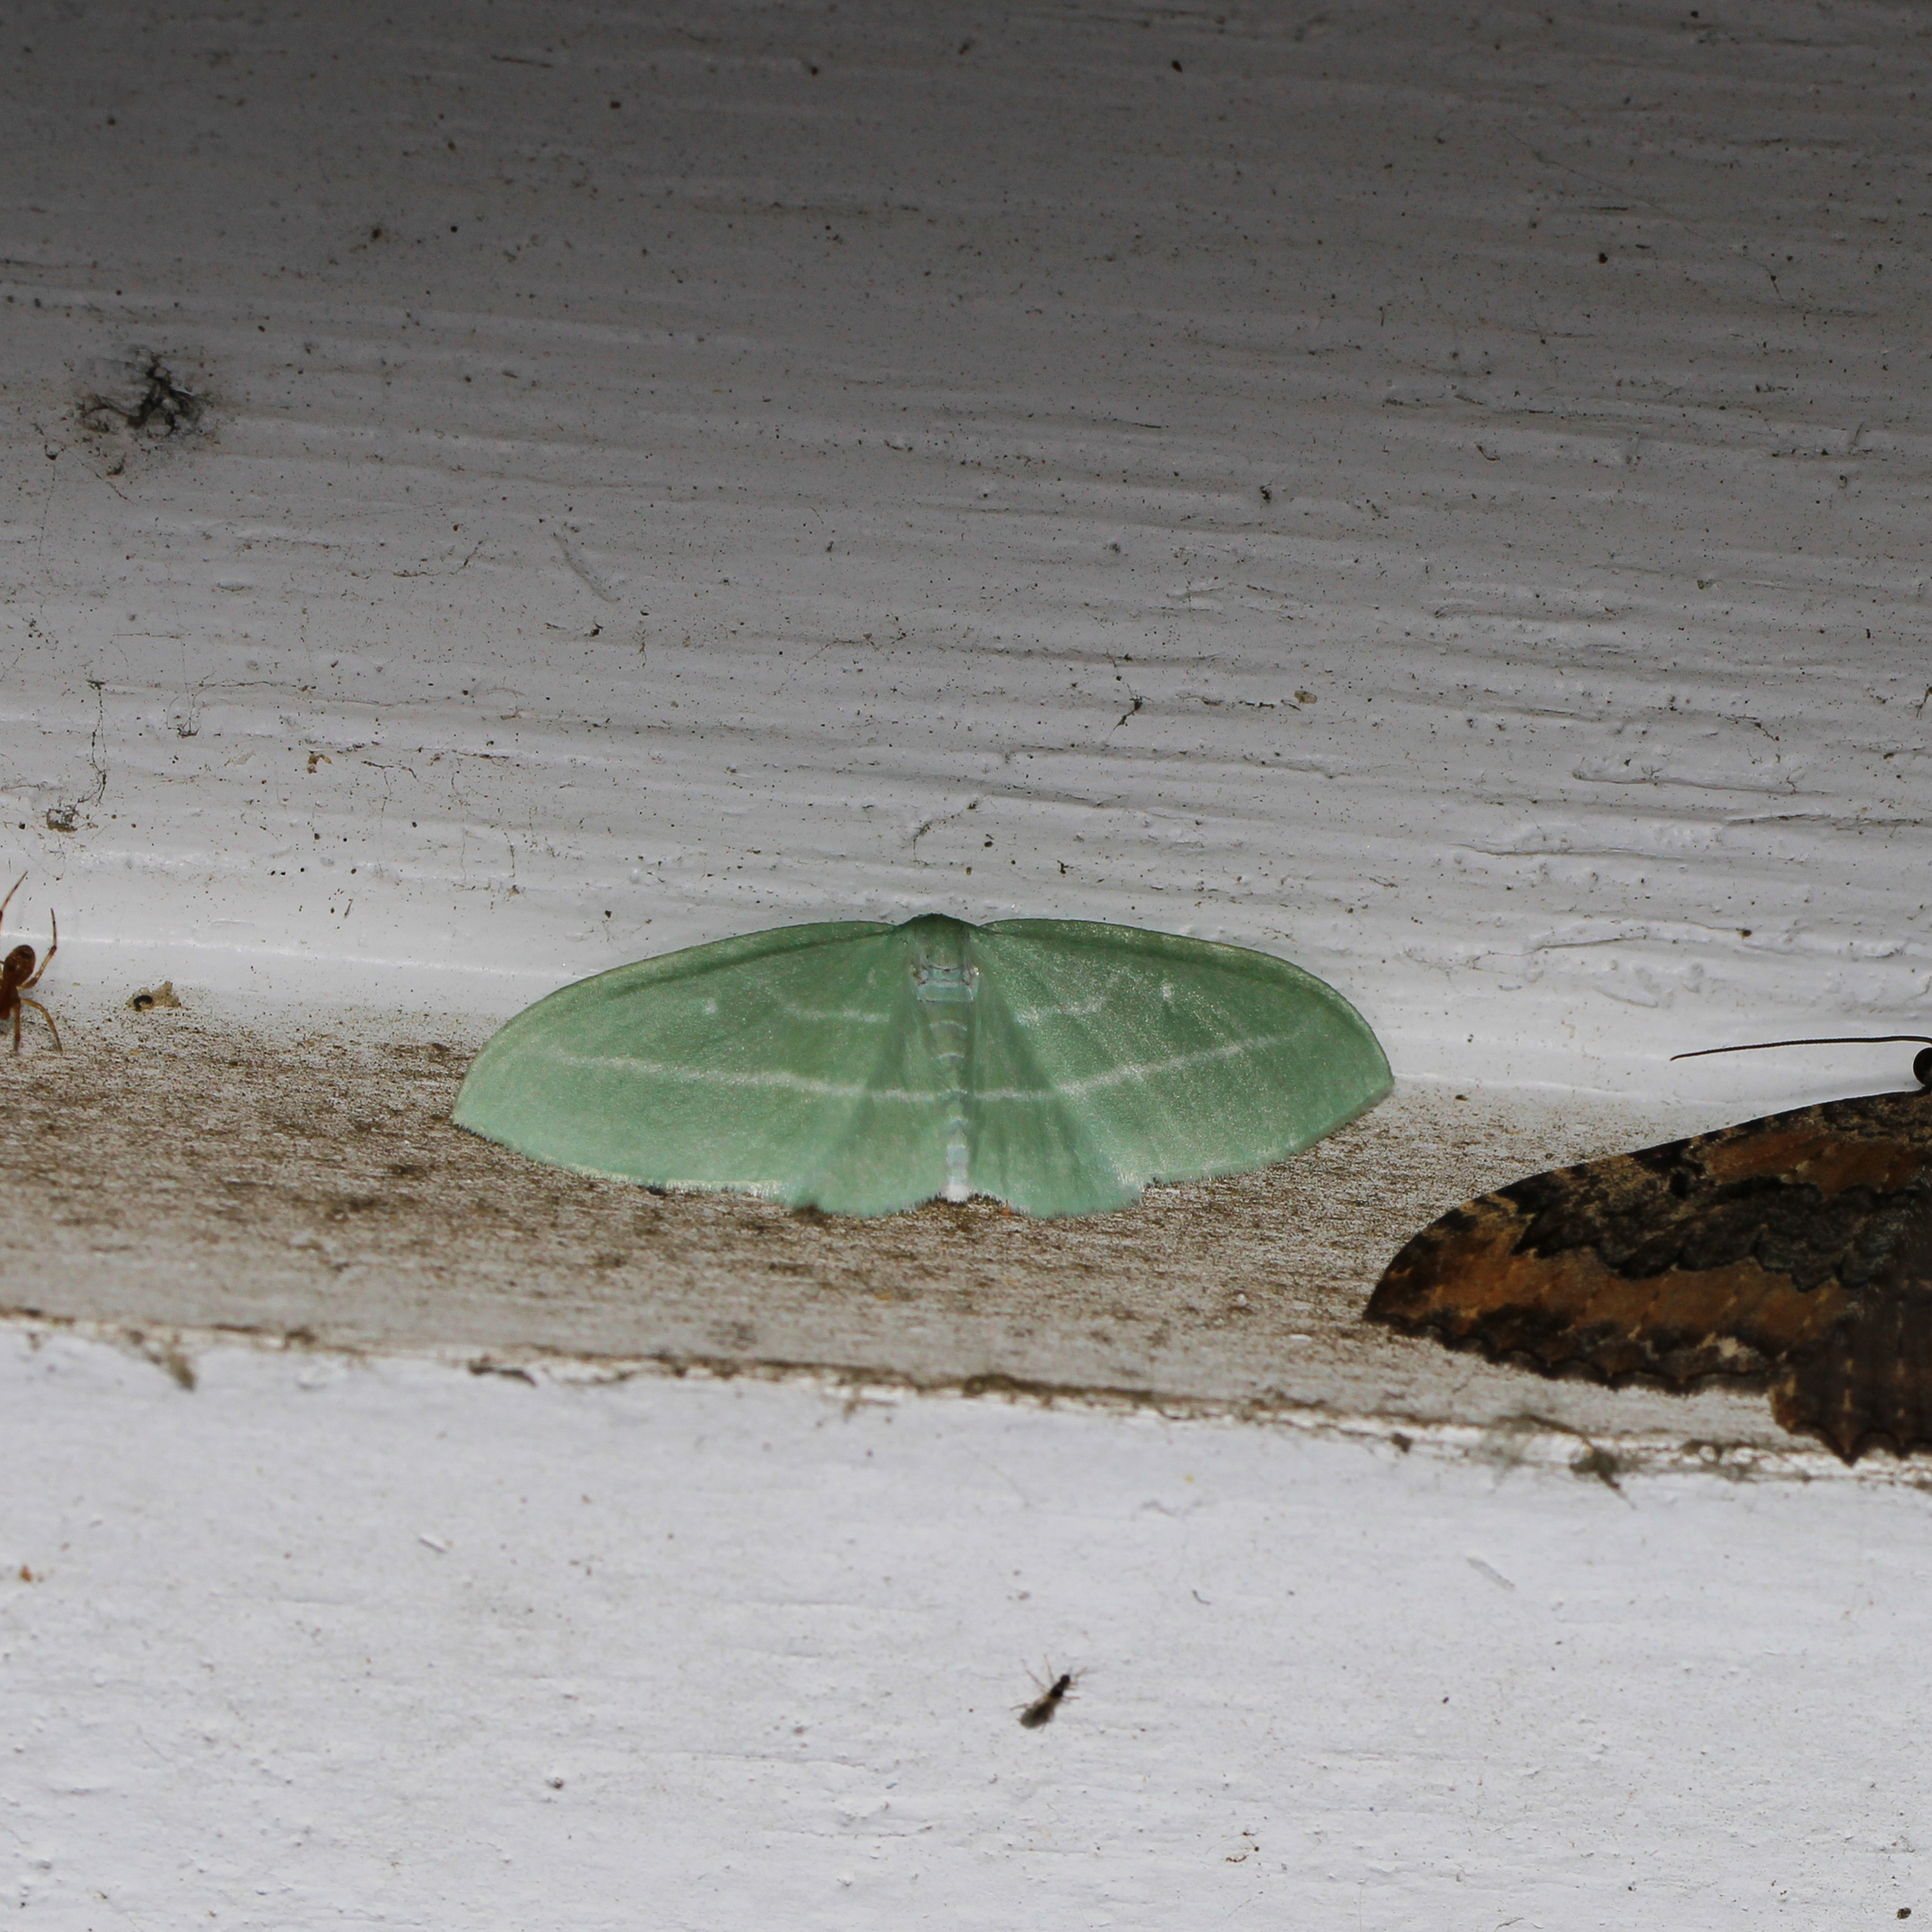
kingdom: Animalia
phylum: Arthropoda
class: Insecta
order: Lepidoptera
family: Geometridae
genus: Dyspteris
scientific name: Dyspteris abortivaria
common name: Bad-wing
